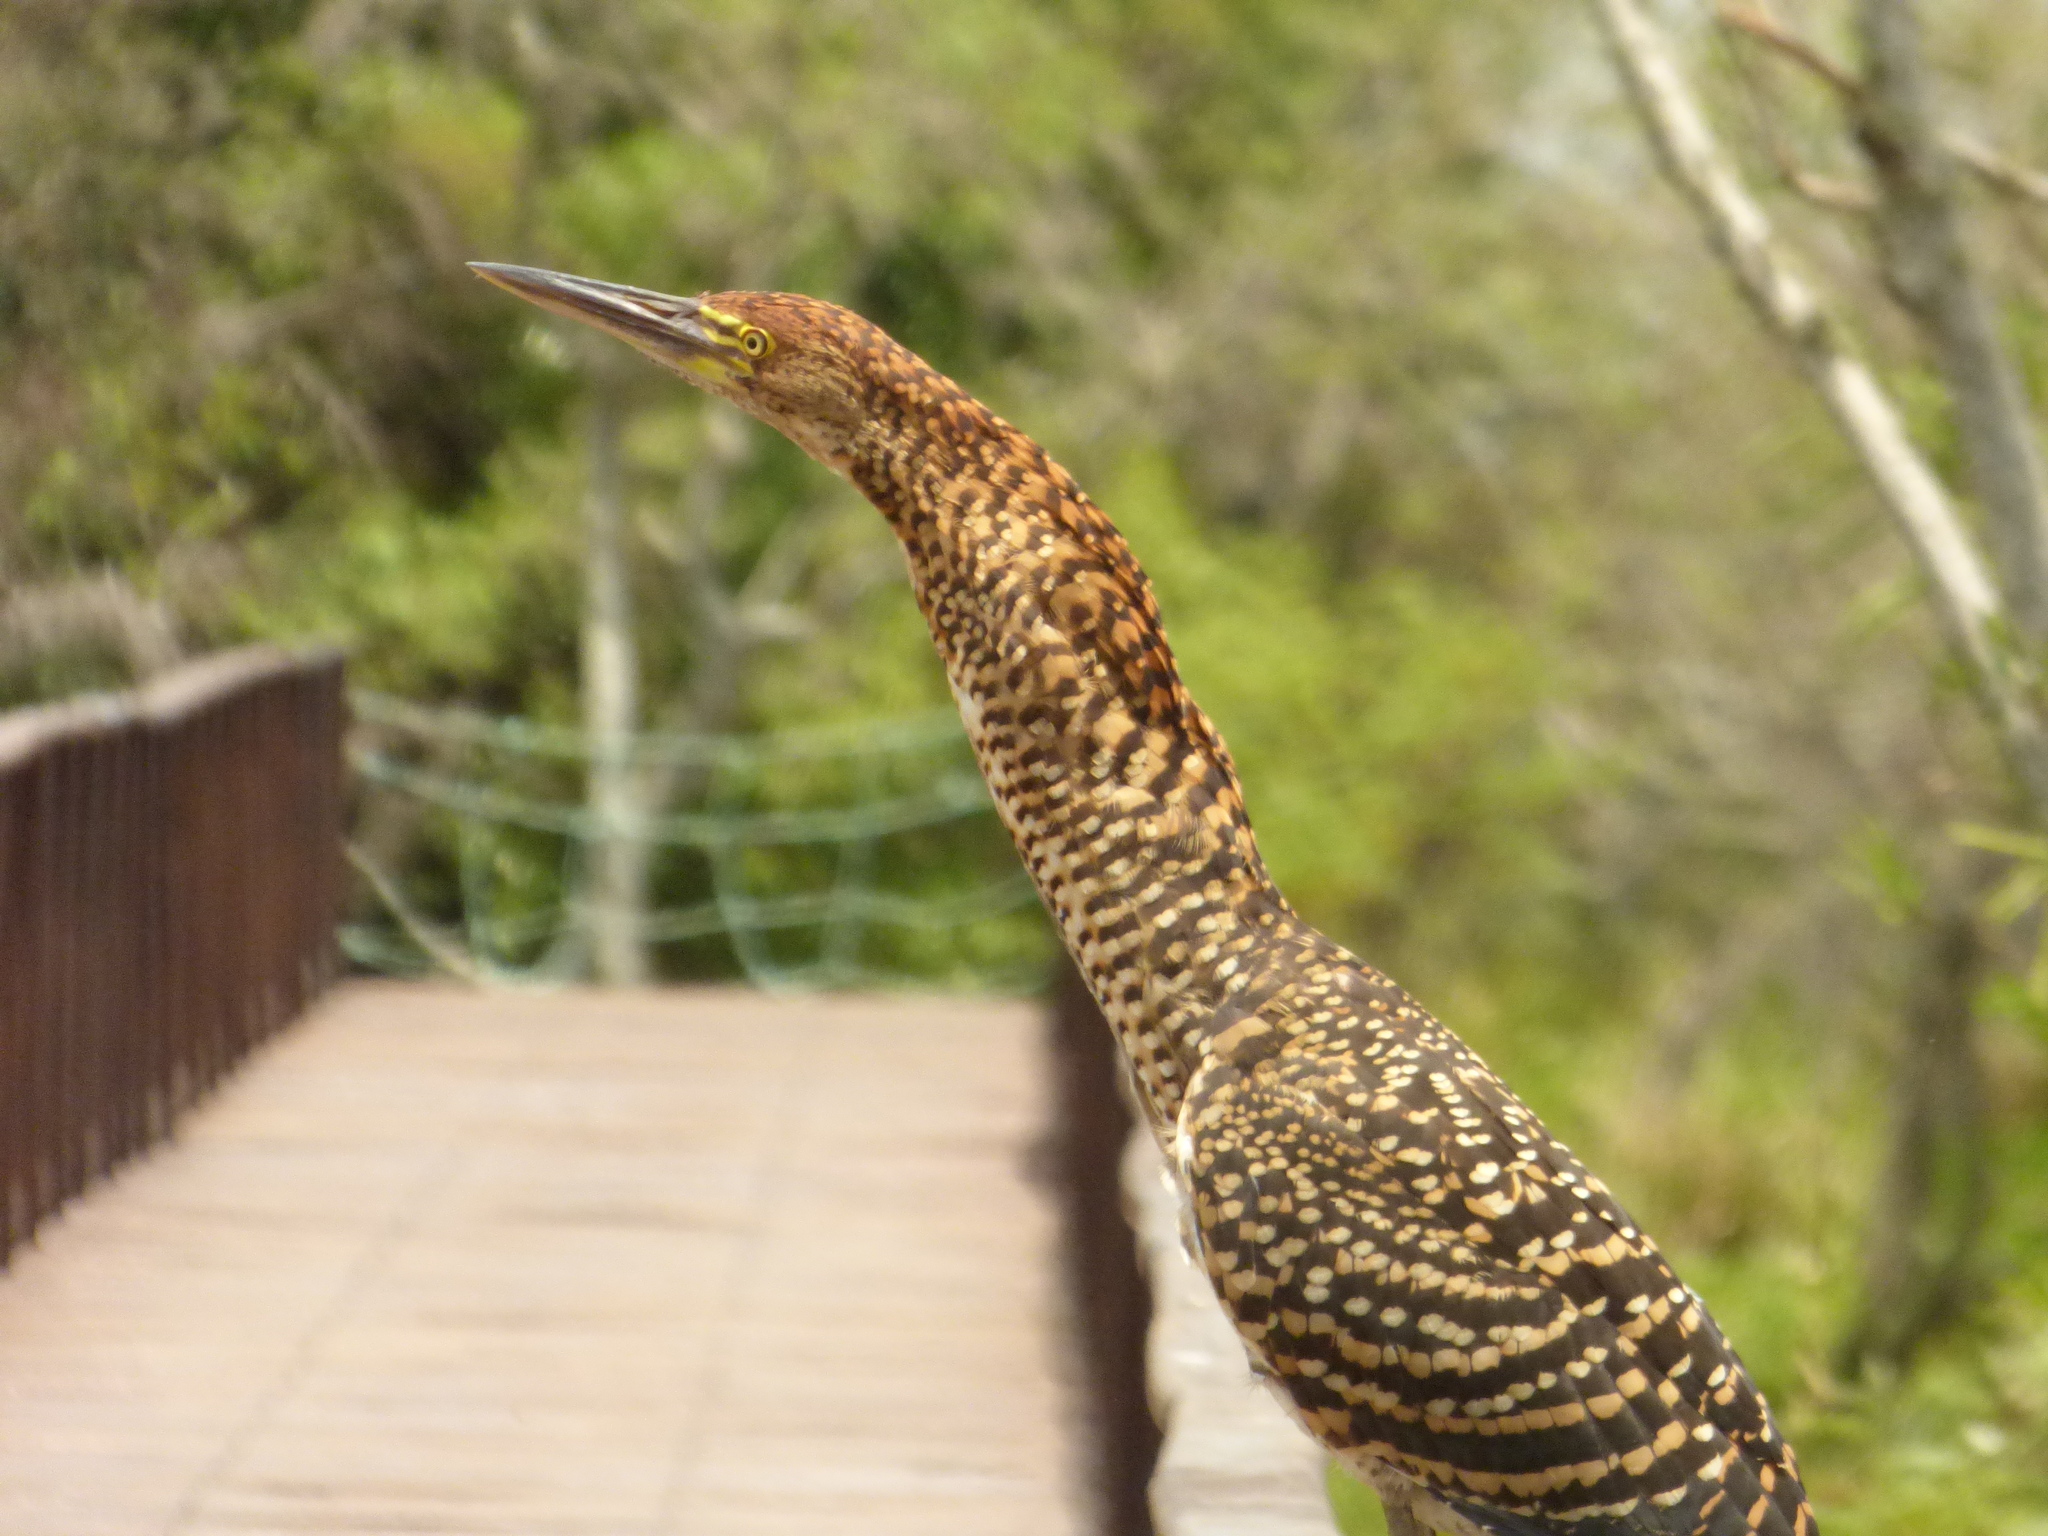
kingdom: Animalia
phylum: Chordata
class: Aves
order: Pelecaniformes
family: Ardeidae
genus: Tigrisoma
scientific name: Tigrisoma lineatum
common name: Rufescent tiger-heron
